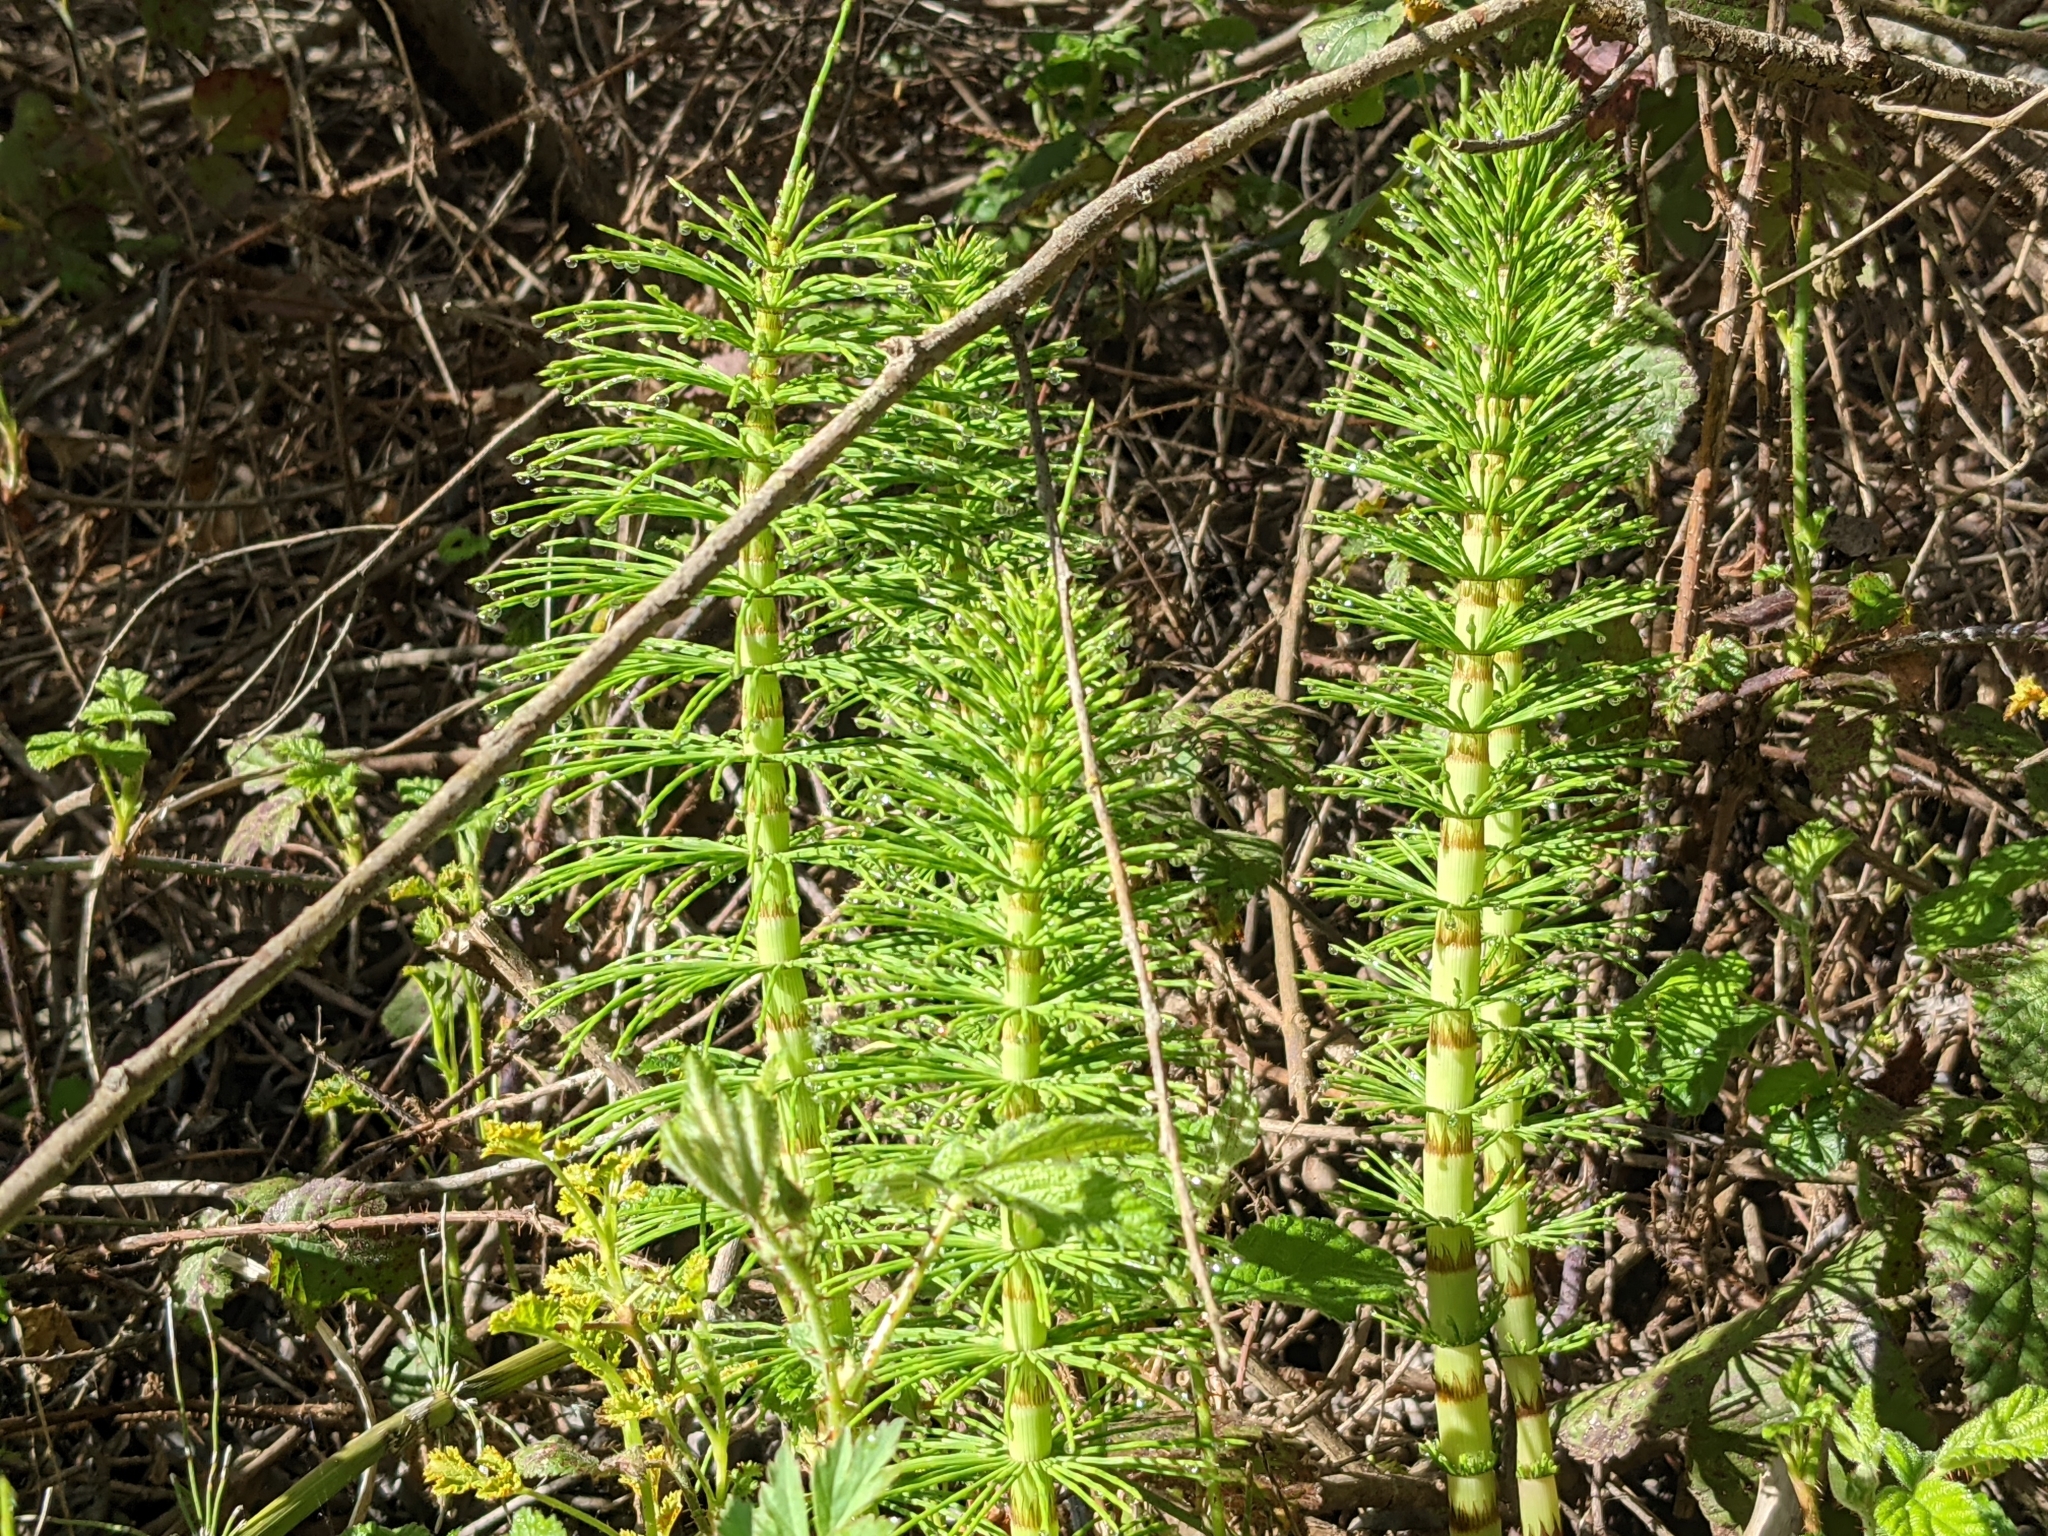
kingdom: Plantae
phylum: Tracheophyta
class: Polypodiopsida
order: Equisetales
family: Equisetaceae
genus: Equisetum
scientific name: Equisetum telmateia
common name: Great horsetail
